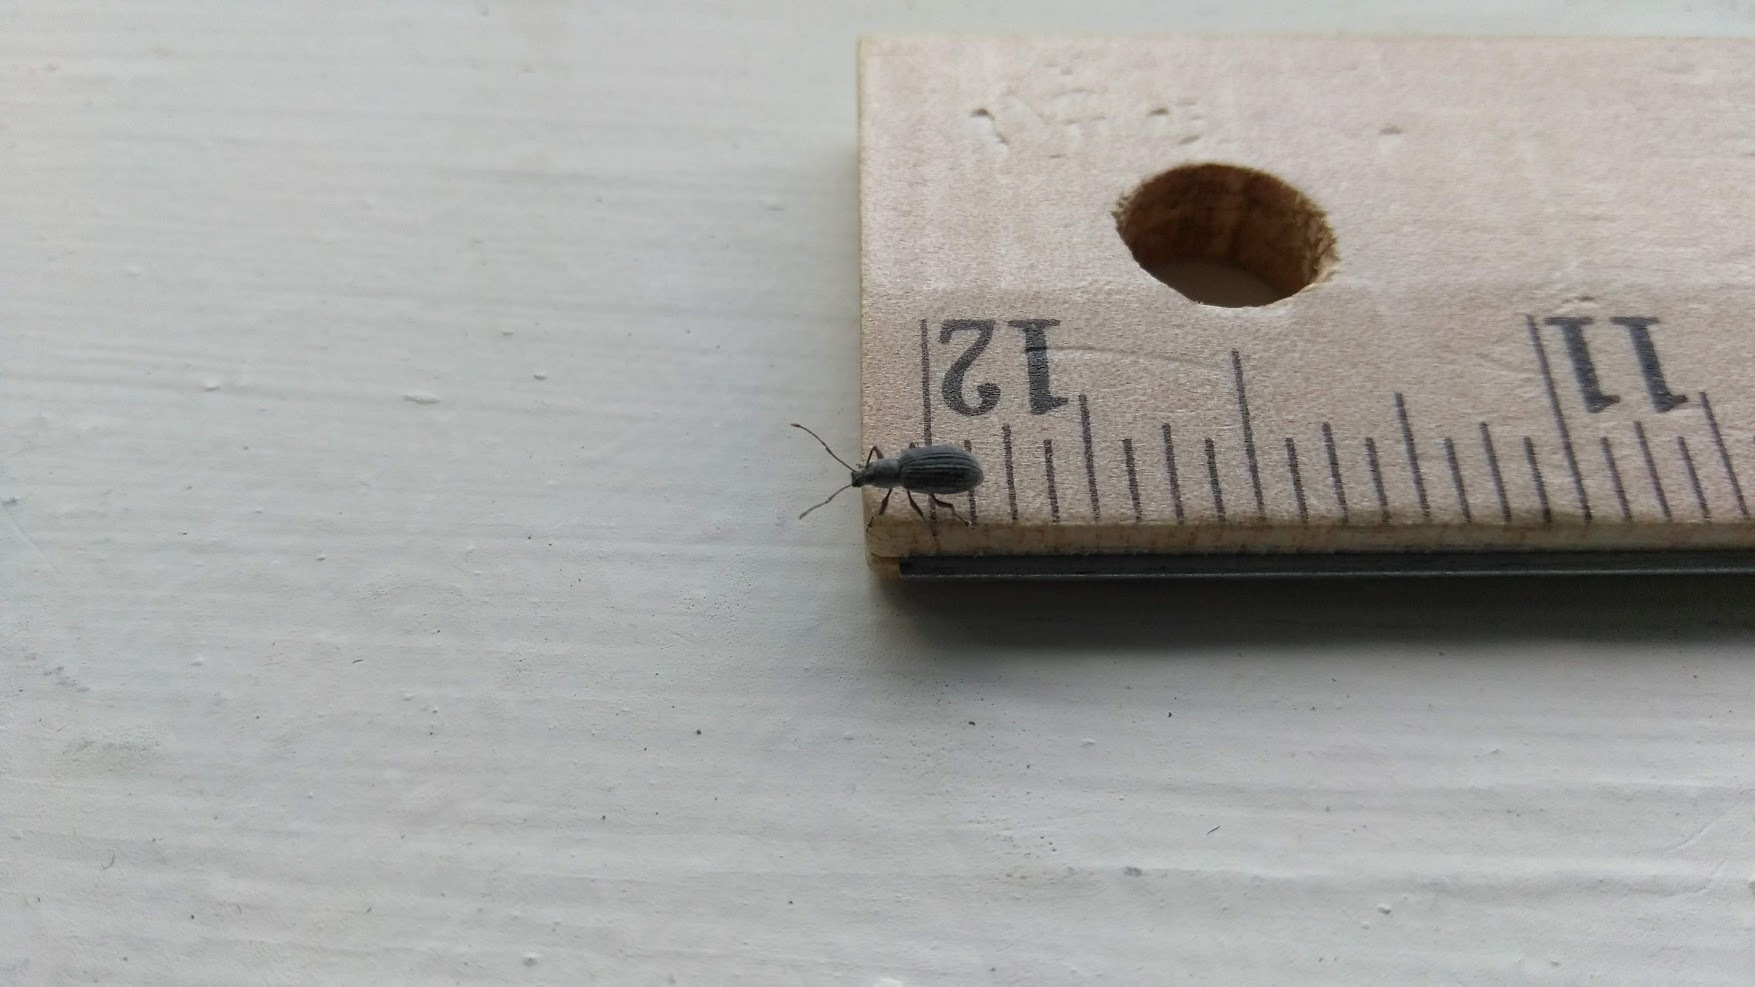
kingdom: Animalia
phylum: Arthropoda
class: Insecta
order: Coleoptera
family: Curculionidae
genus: Cyrtepistomus
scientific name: Cyrtepistomus castaneus
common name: Weevil
